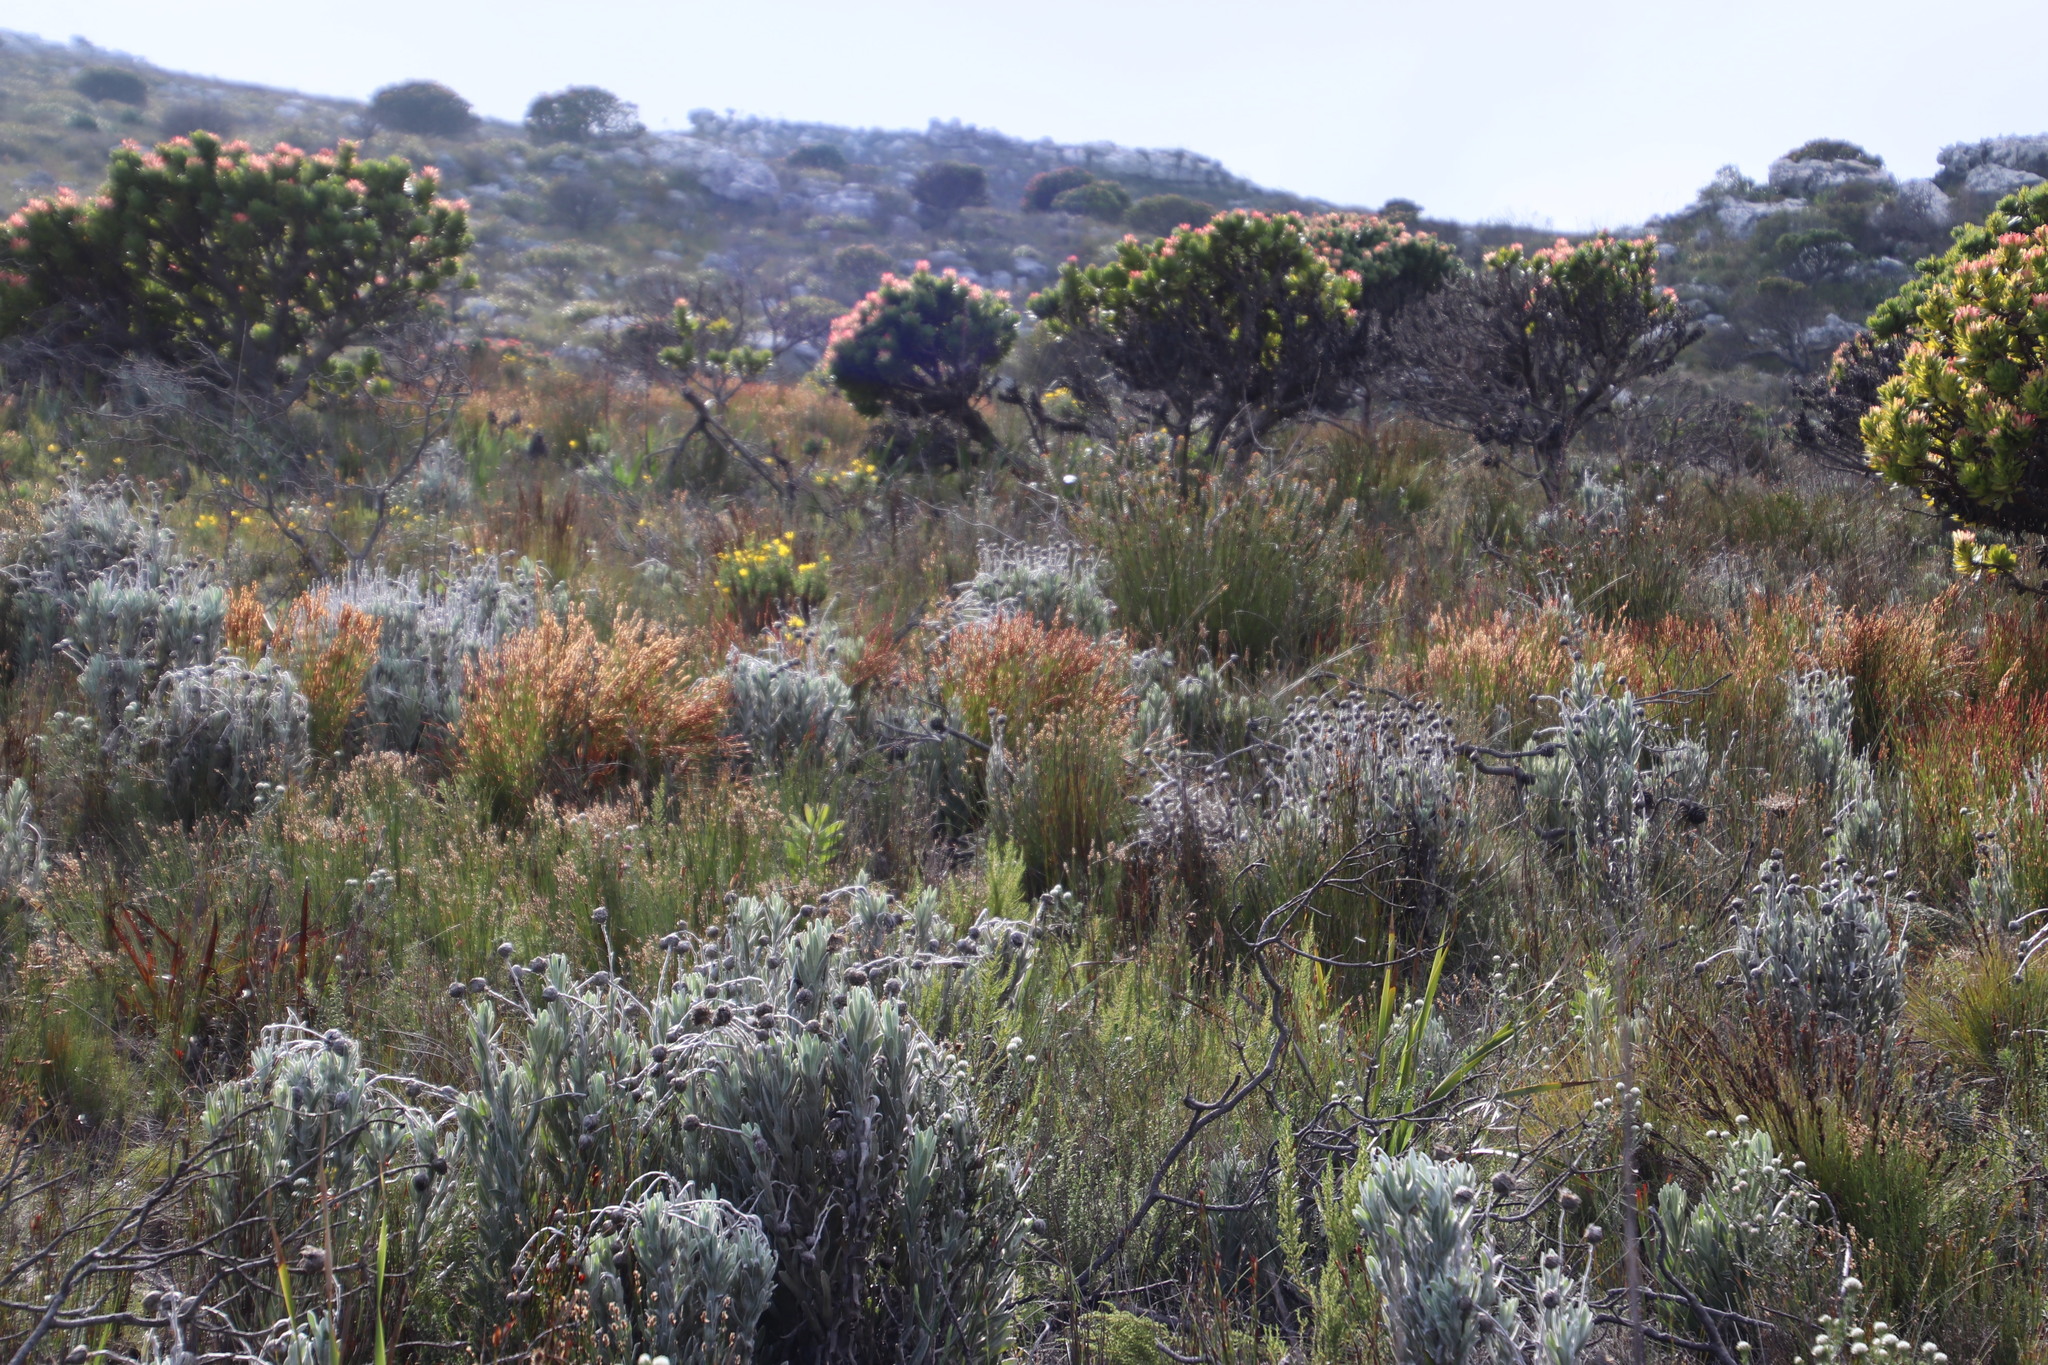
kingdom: Plantae
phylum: Tracheophyta
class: Liliopsida
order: Poales
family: Restionaceae
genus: Elegia
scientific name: Elegia stipularis
